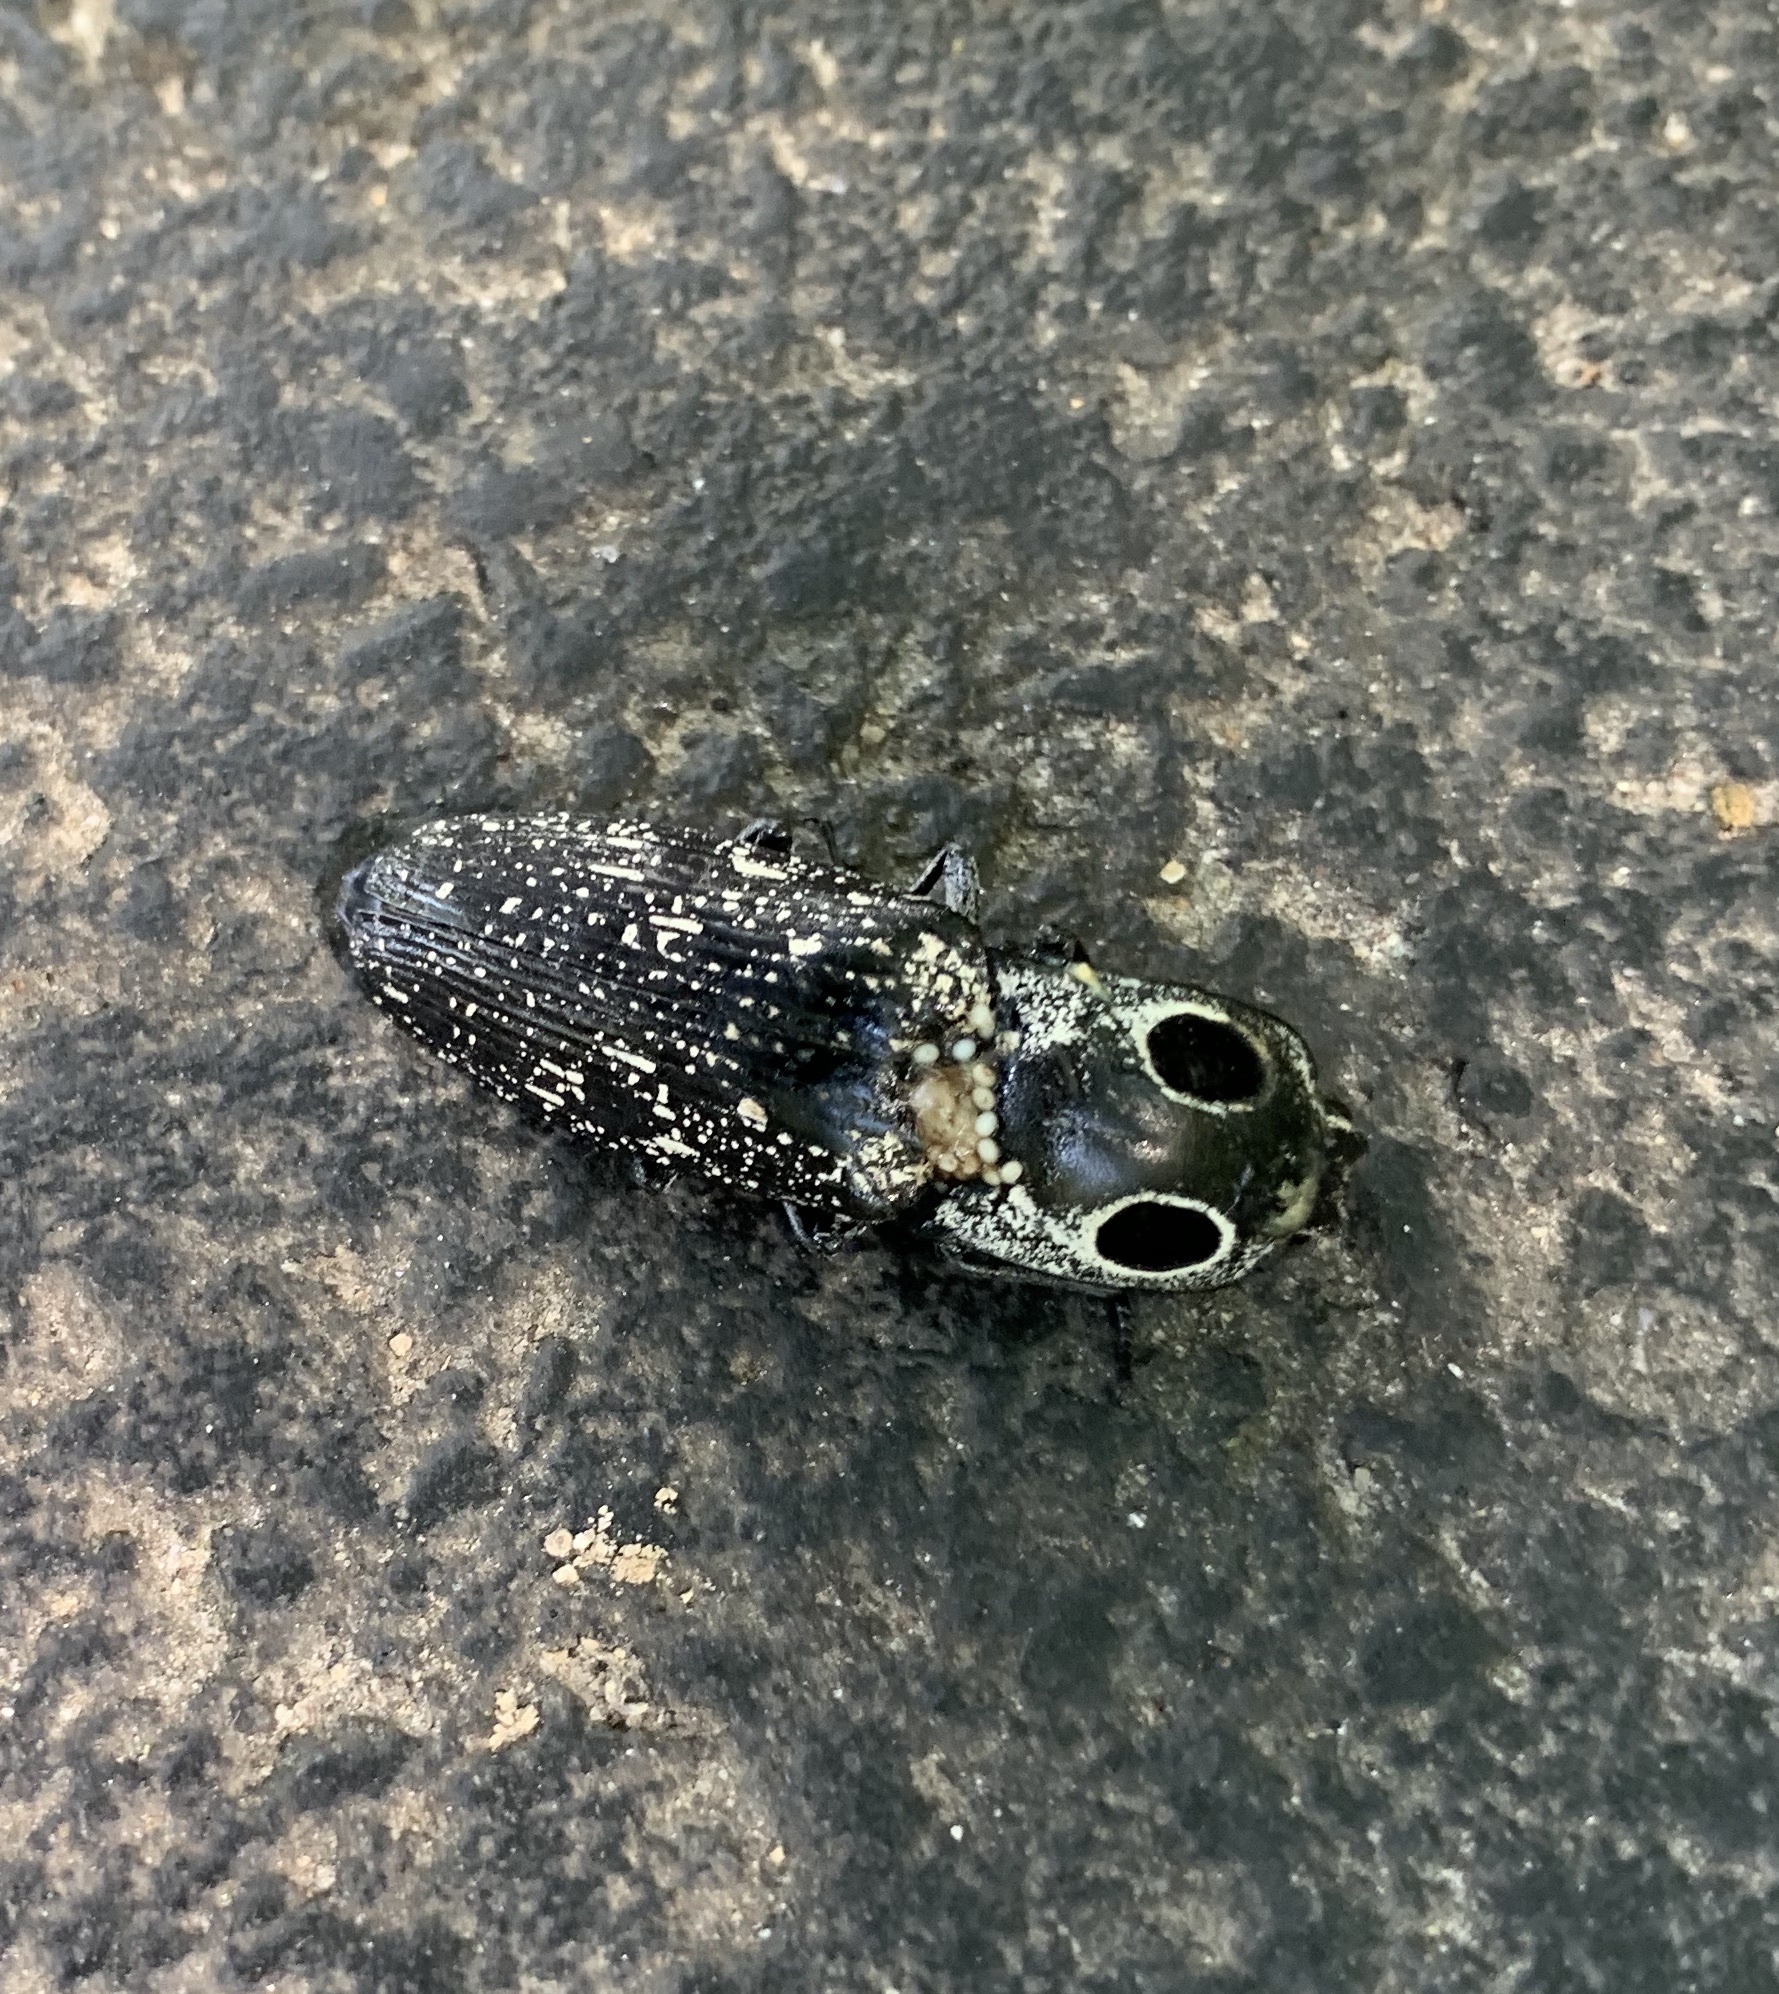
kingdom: Animalia
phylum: Arthropoda
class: Insecta
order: Coleoptera
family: Elateridae
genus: Alaus
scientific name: Alaus oculatus
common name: Eastern eyed click beetle
